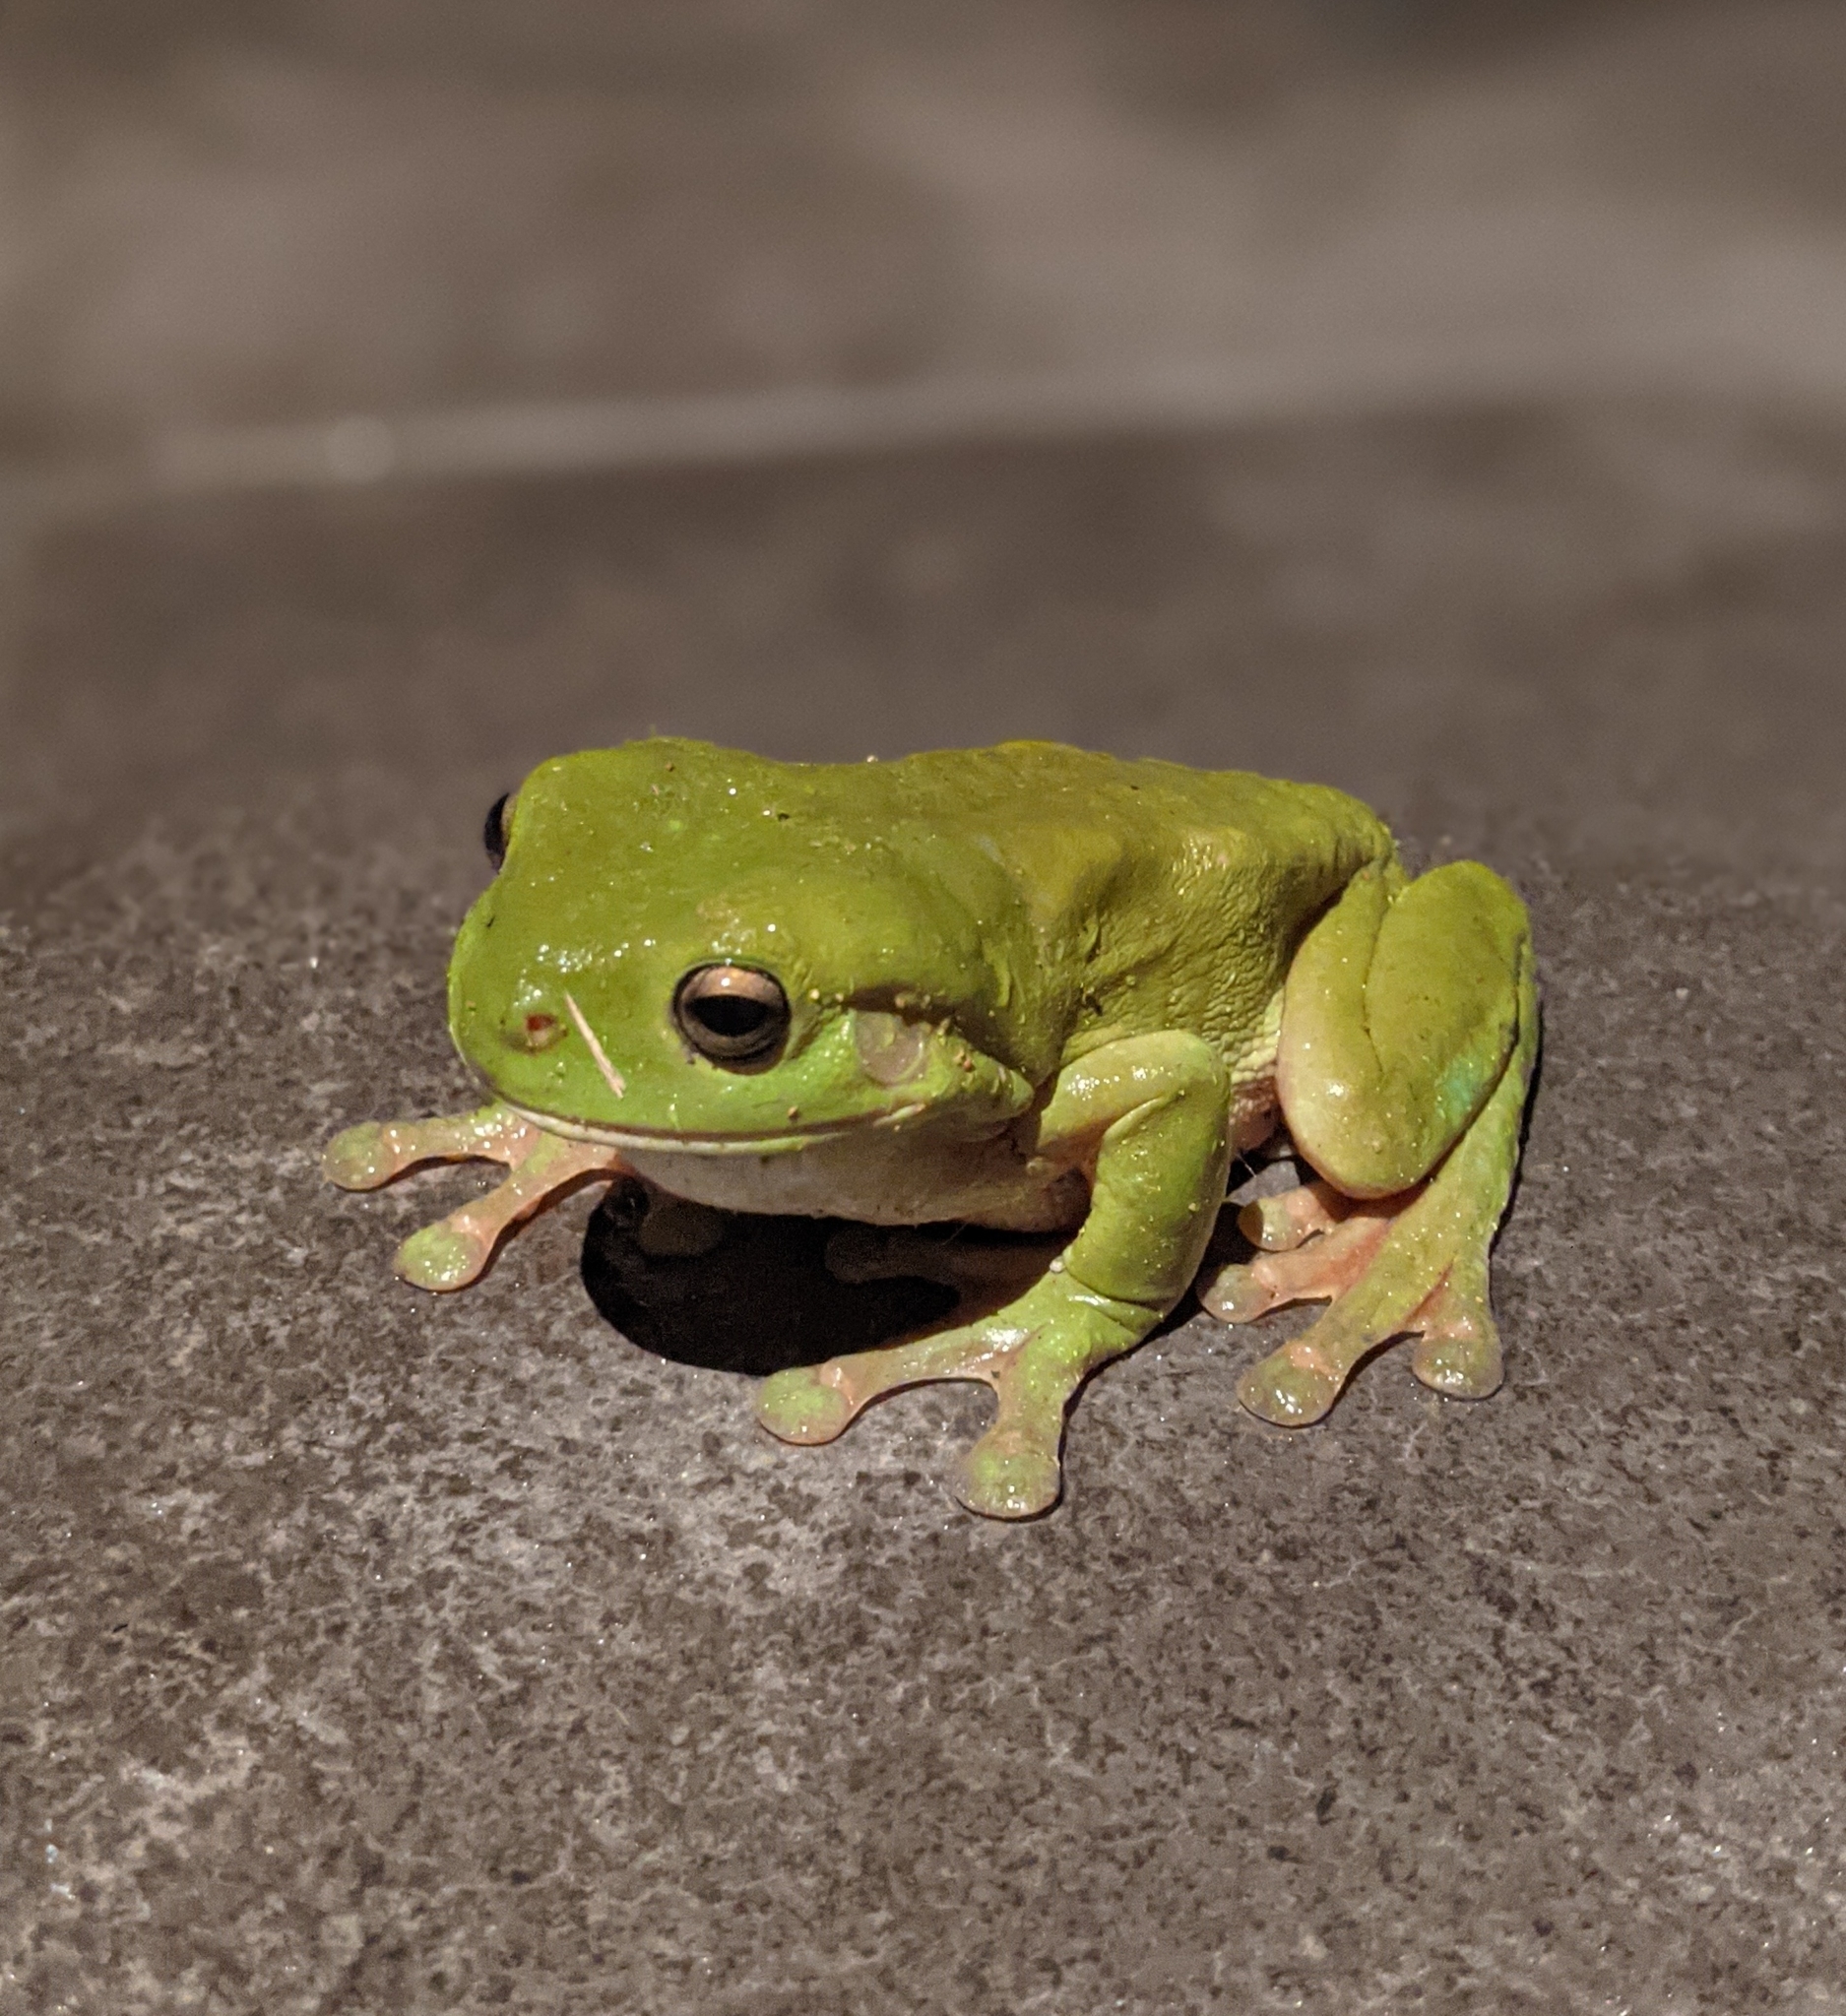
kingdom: Animalia
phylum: Chordata
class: Amphibia
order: Anura
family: Pelodryadidae
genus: Ranoidea
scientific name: Ranoidea caerulea
